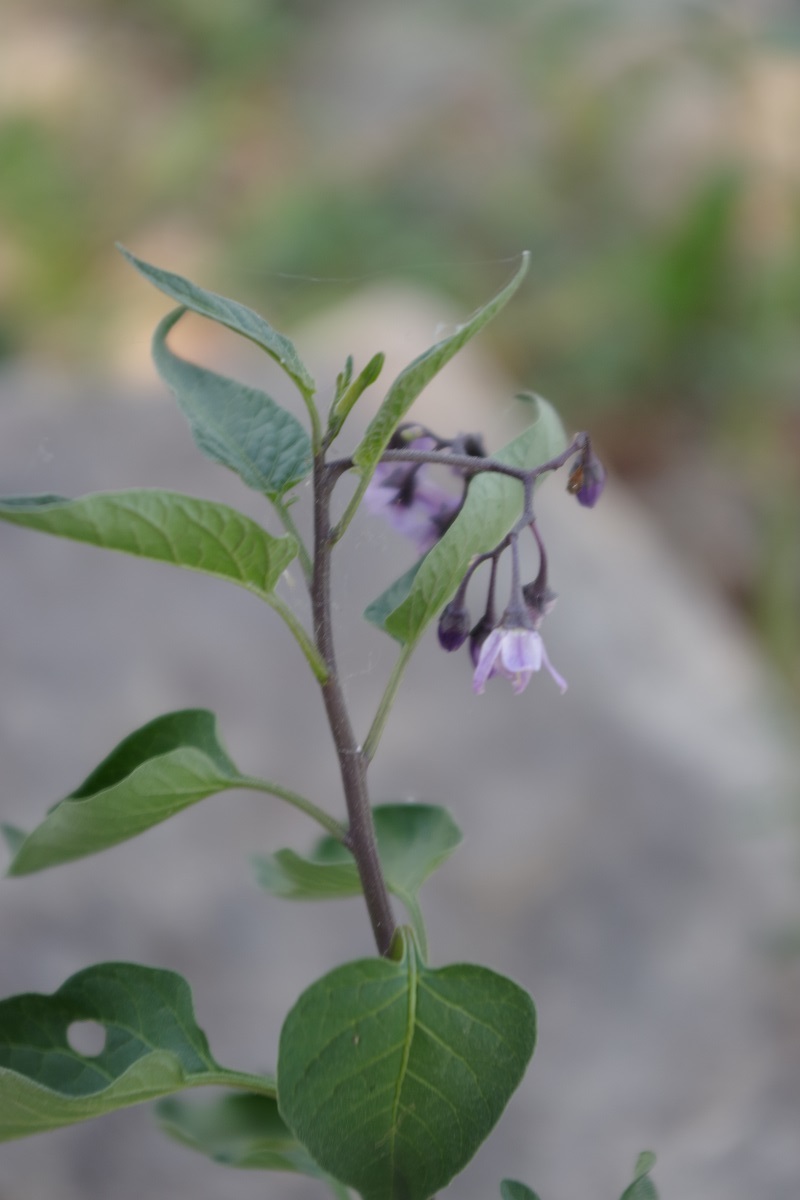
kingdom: Plantae
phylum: Tracheophyta
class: Magnoliopsida
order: Solanales
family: Solanaceae
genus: Solanum
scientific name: Solanum dulcamara
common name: Climbing nightshade
